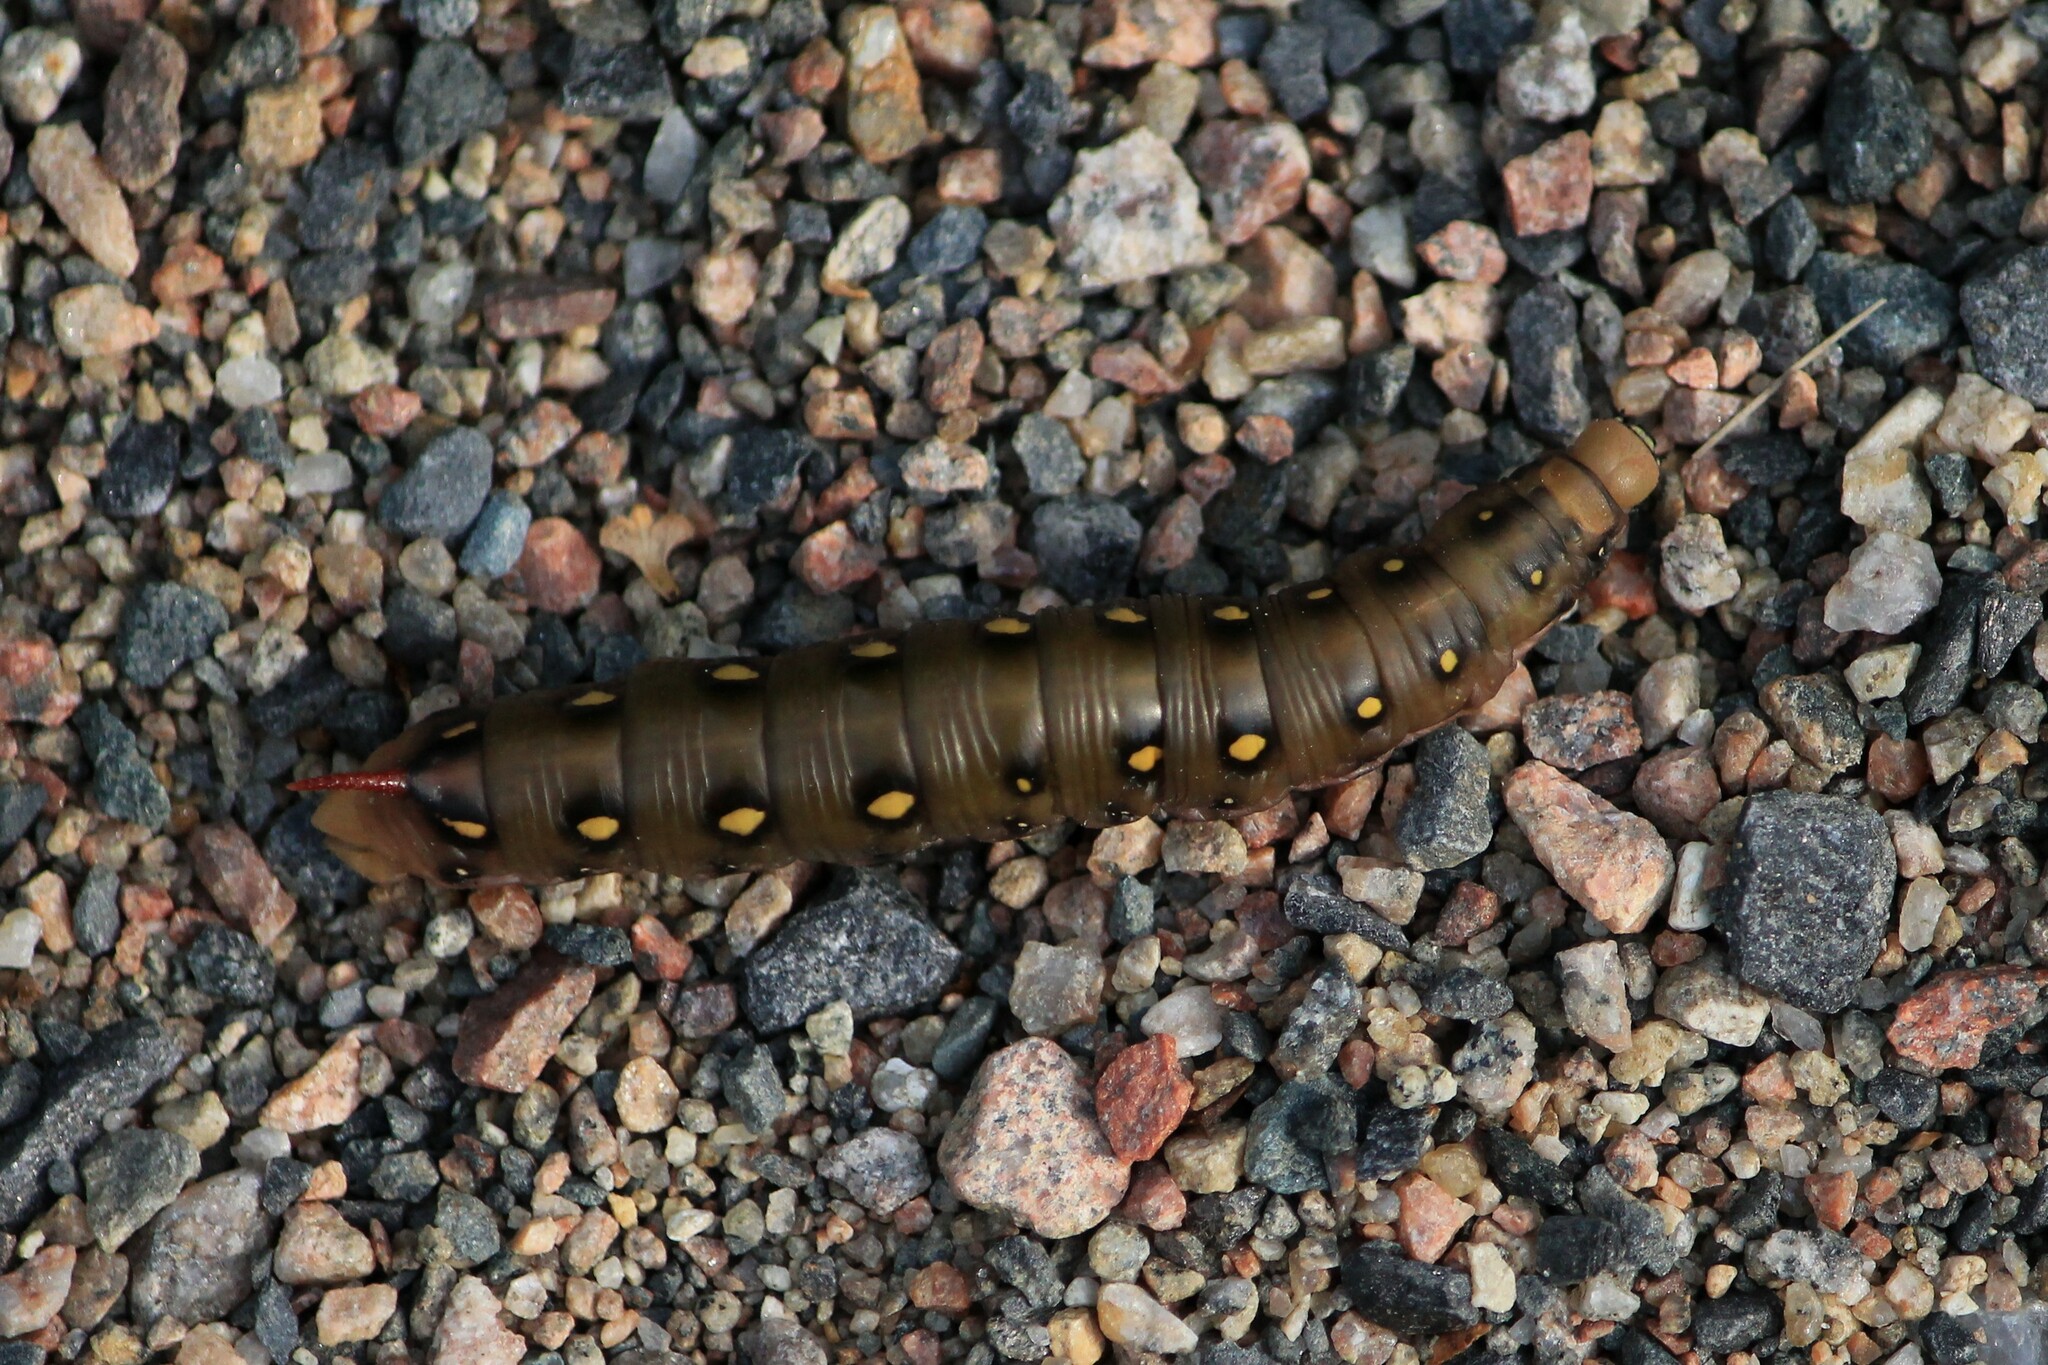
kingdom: Animalia
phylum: Arthropoda
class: Insecta
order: Lepidoptera
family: Sphingidae
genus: Hyles
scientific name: Hyles gallii
